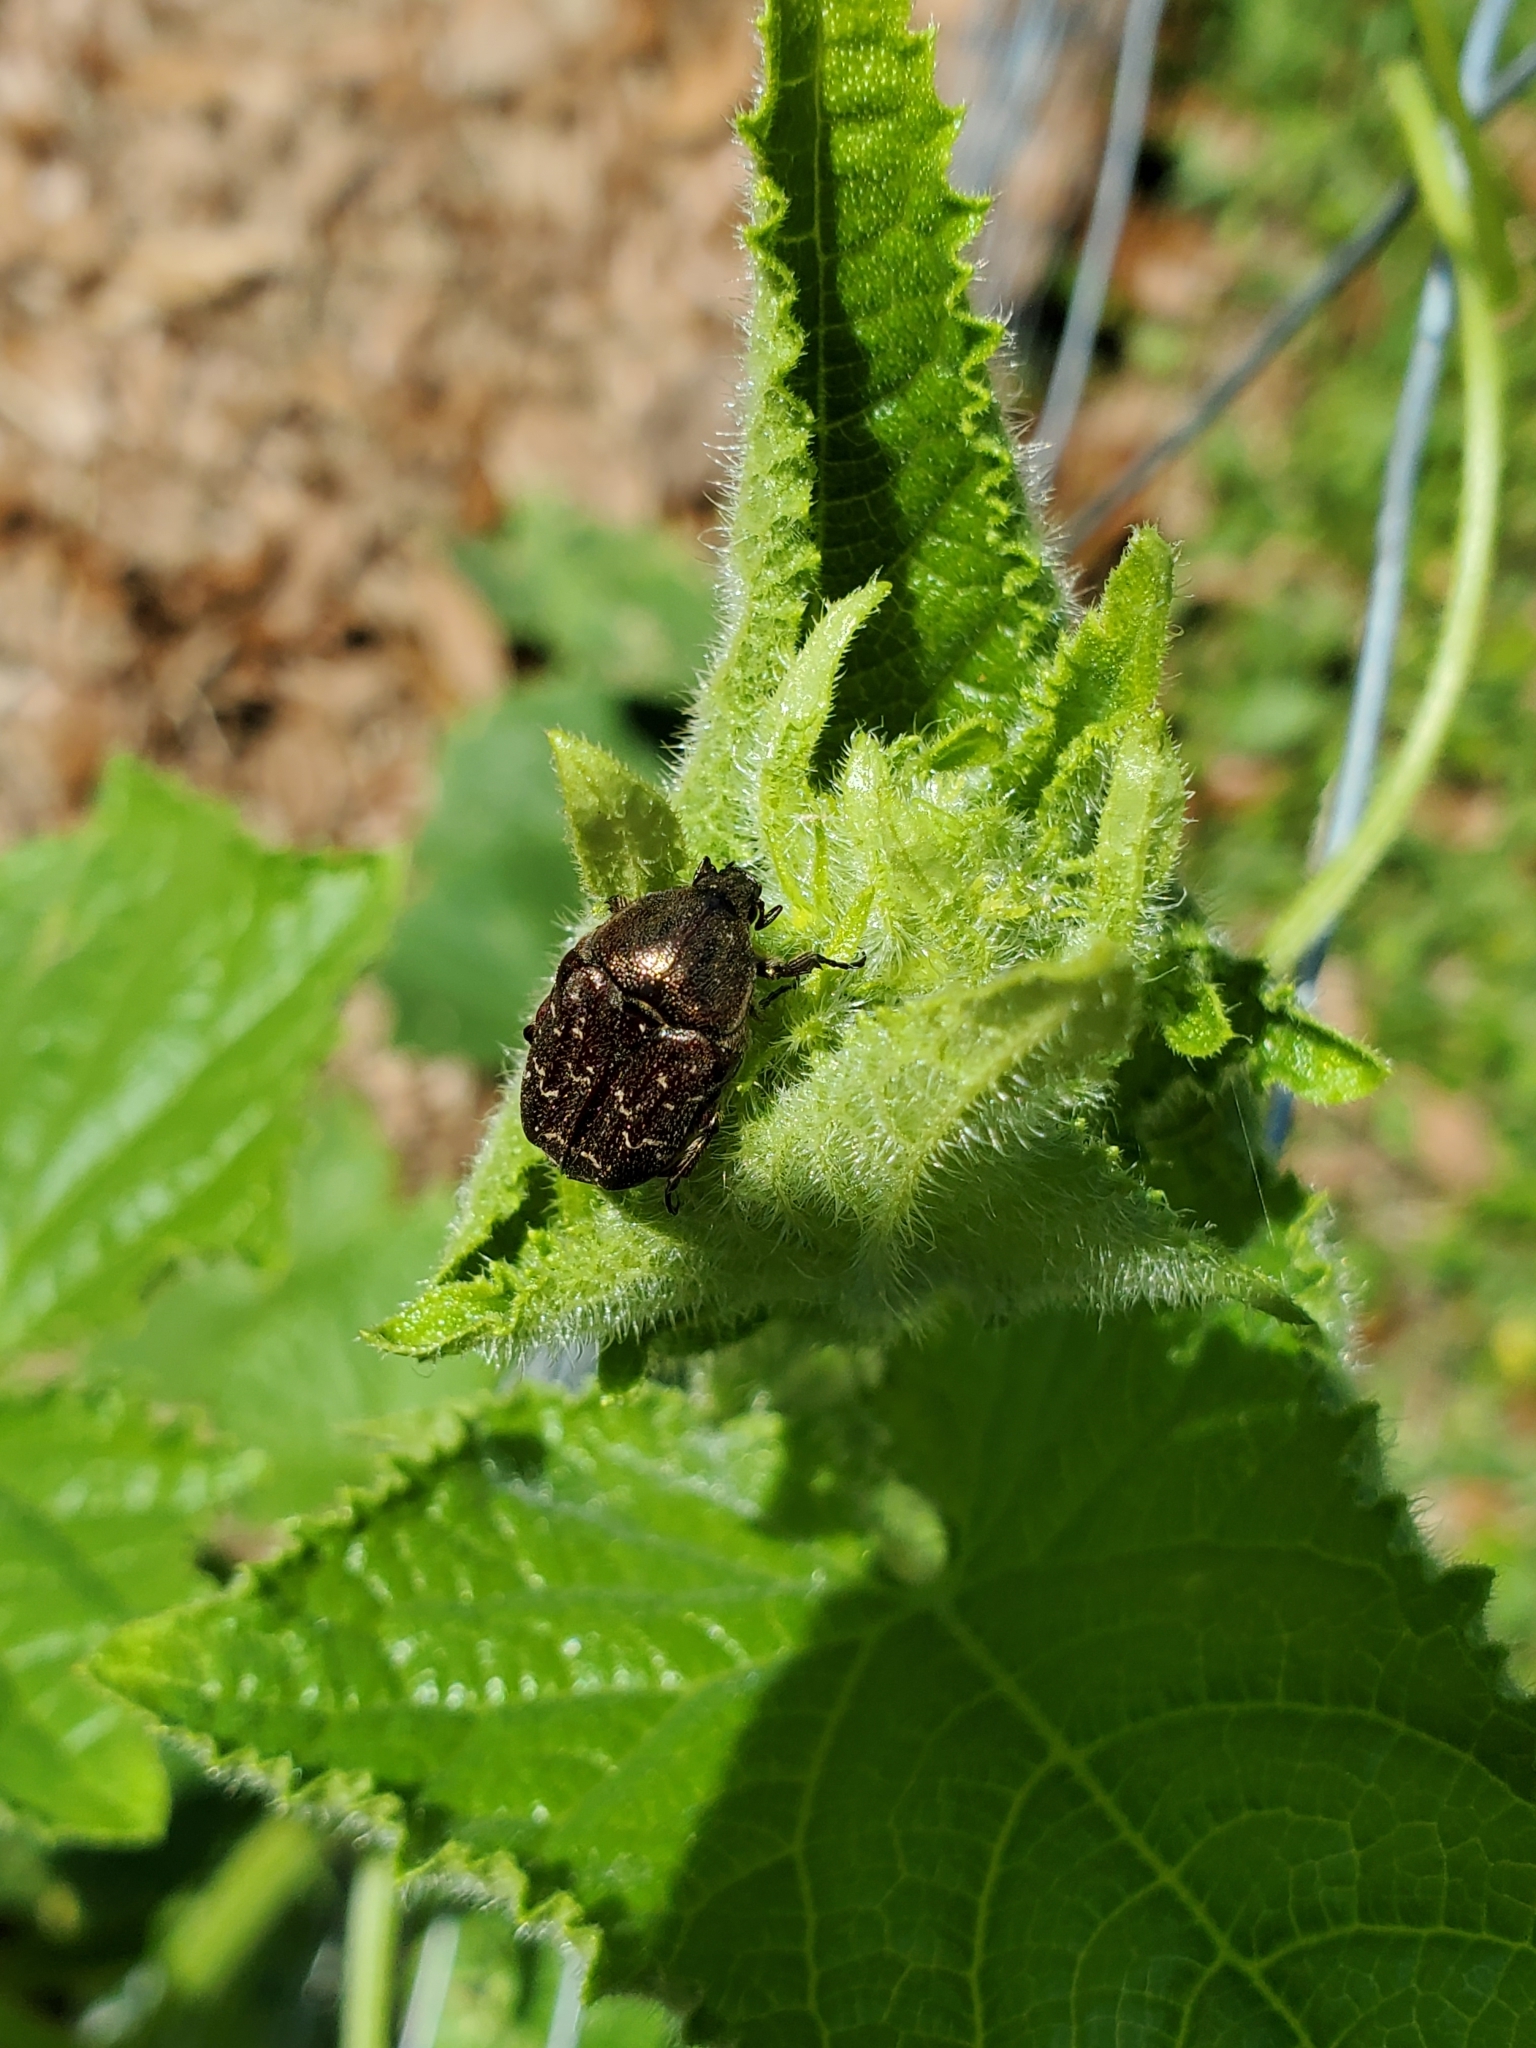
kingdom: Animalia
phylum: Arthropoda
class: Insecta
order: Coleoptera
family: Scarabaeidae
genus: Euphoria
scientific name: Euphoria sepulcralis
